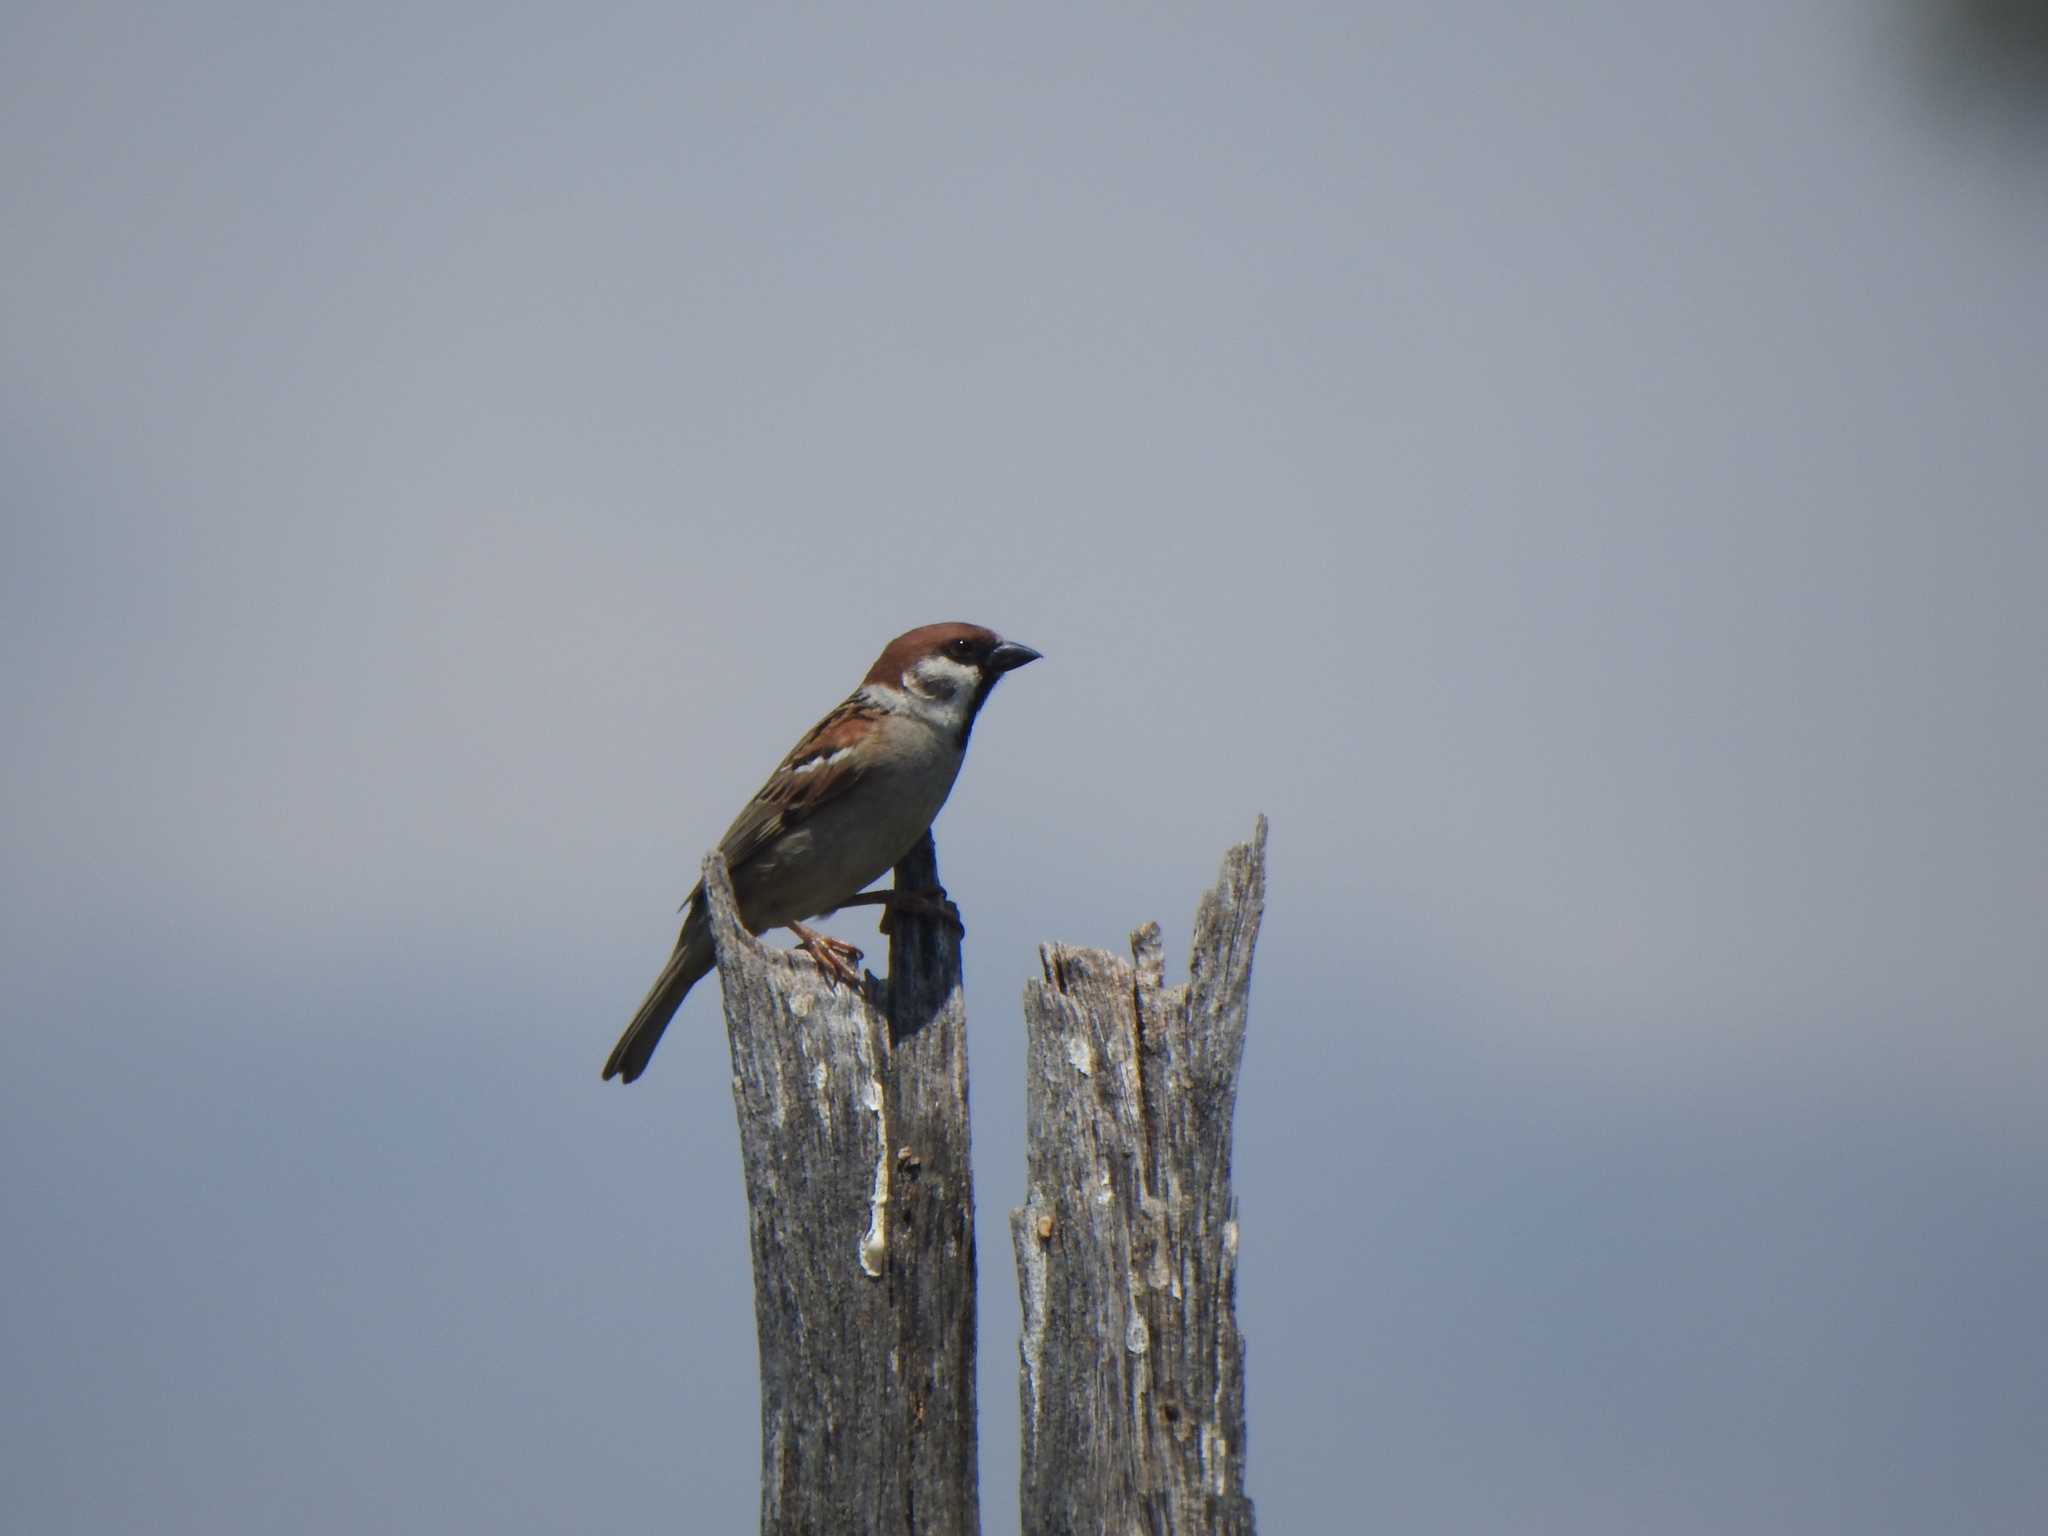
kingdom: Animalia
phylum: Chordata
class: Aves
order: Passeriformes
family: Passeridae
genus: Passer
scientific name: Passer montanus
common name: Eurasian tree sparrow
